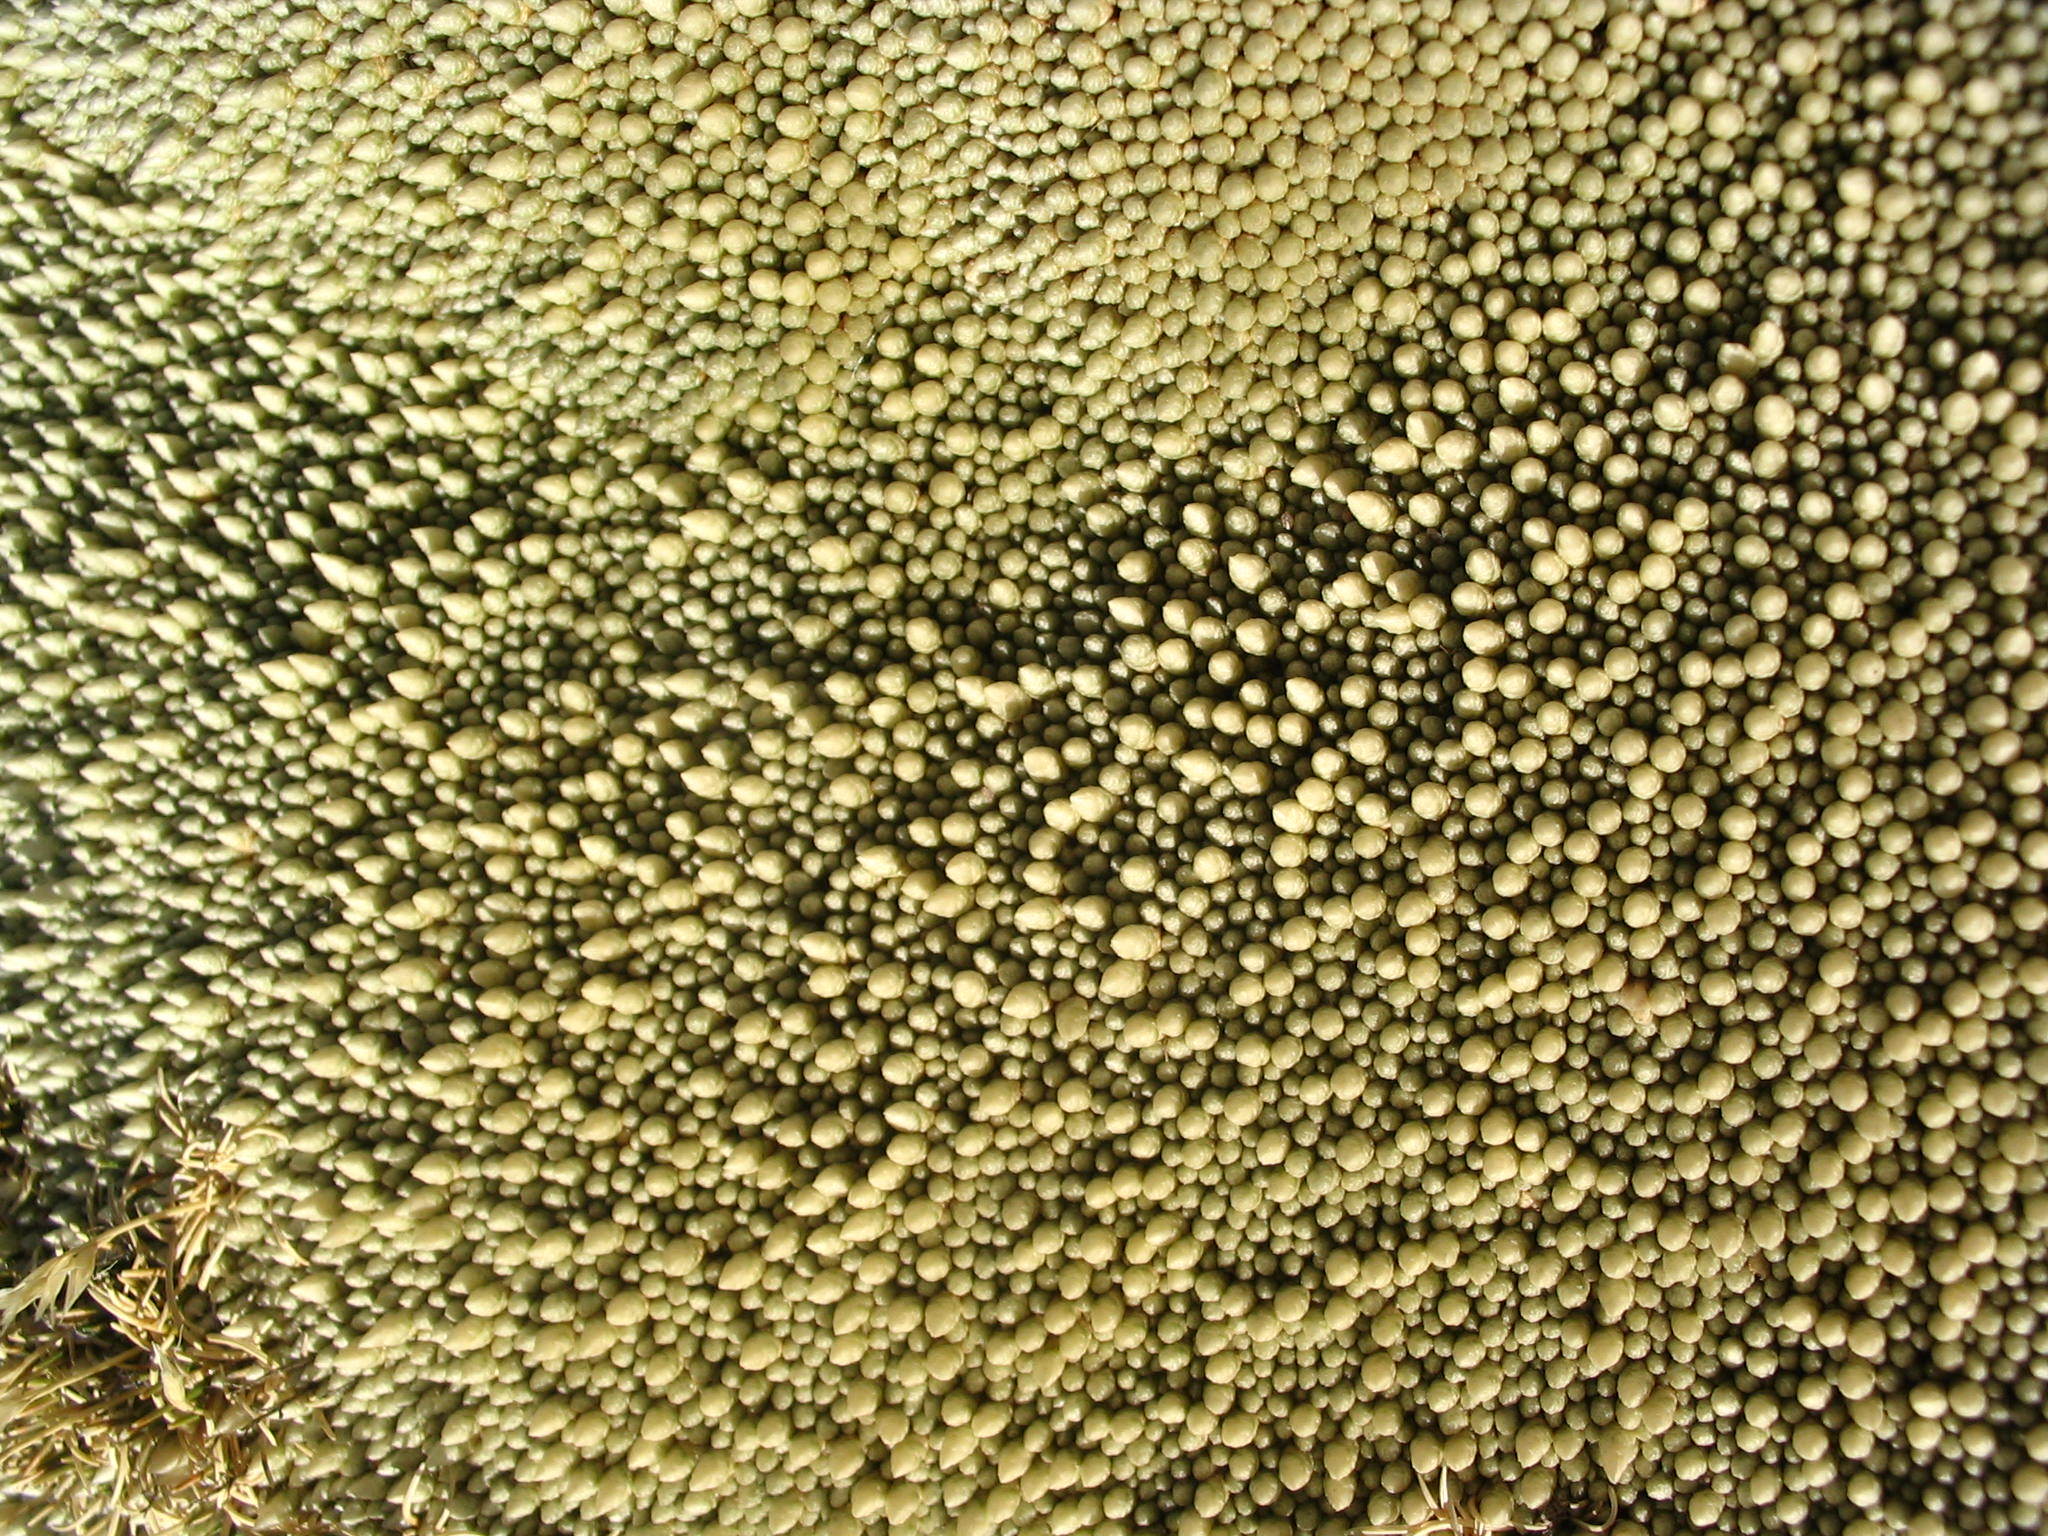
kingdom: Plantae
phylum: Tracheophyta
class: Magnoliopsida
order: Caryophyllales
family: Caryophyllaceae
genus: Pycnophyllum
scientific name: Pycnophyllum molle
